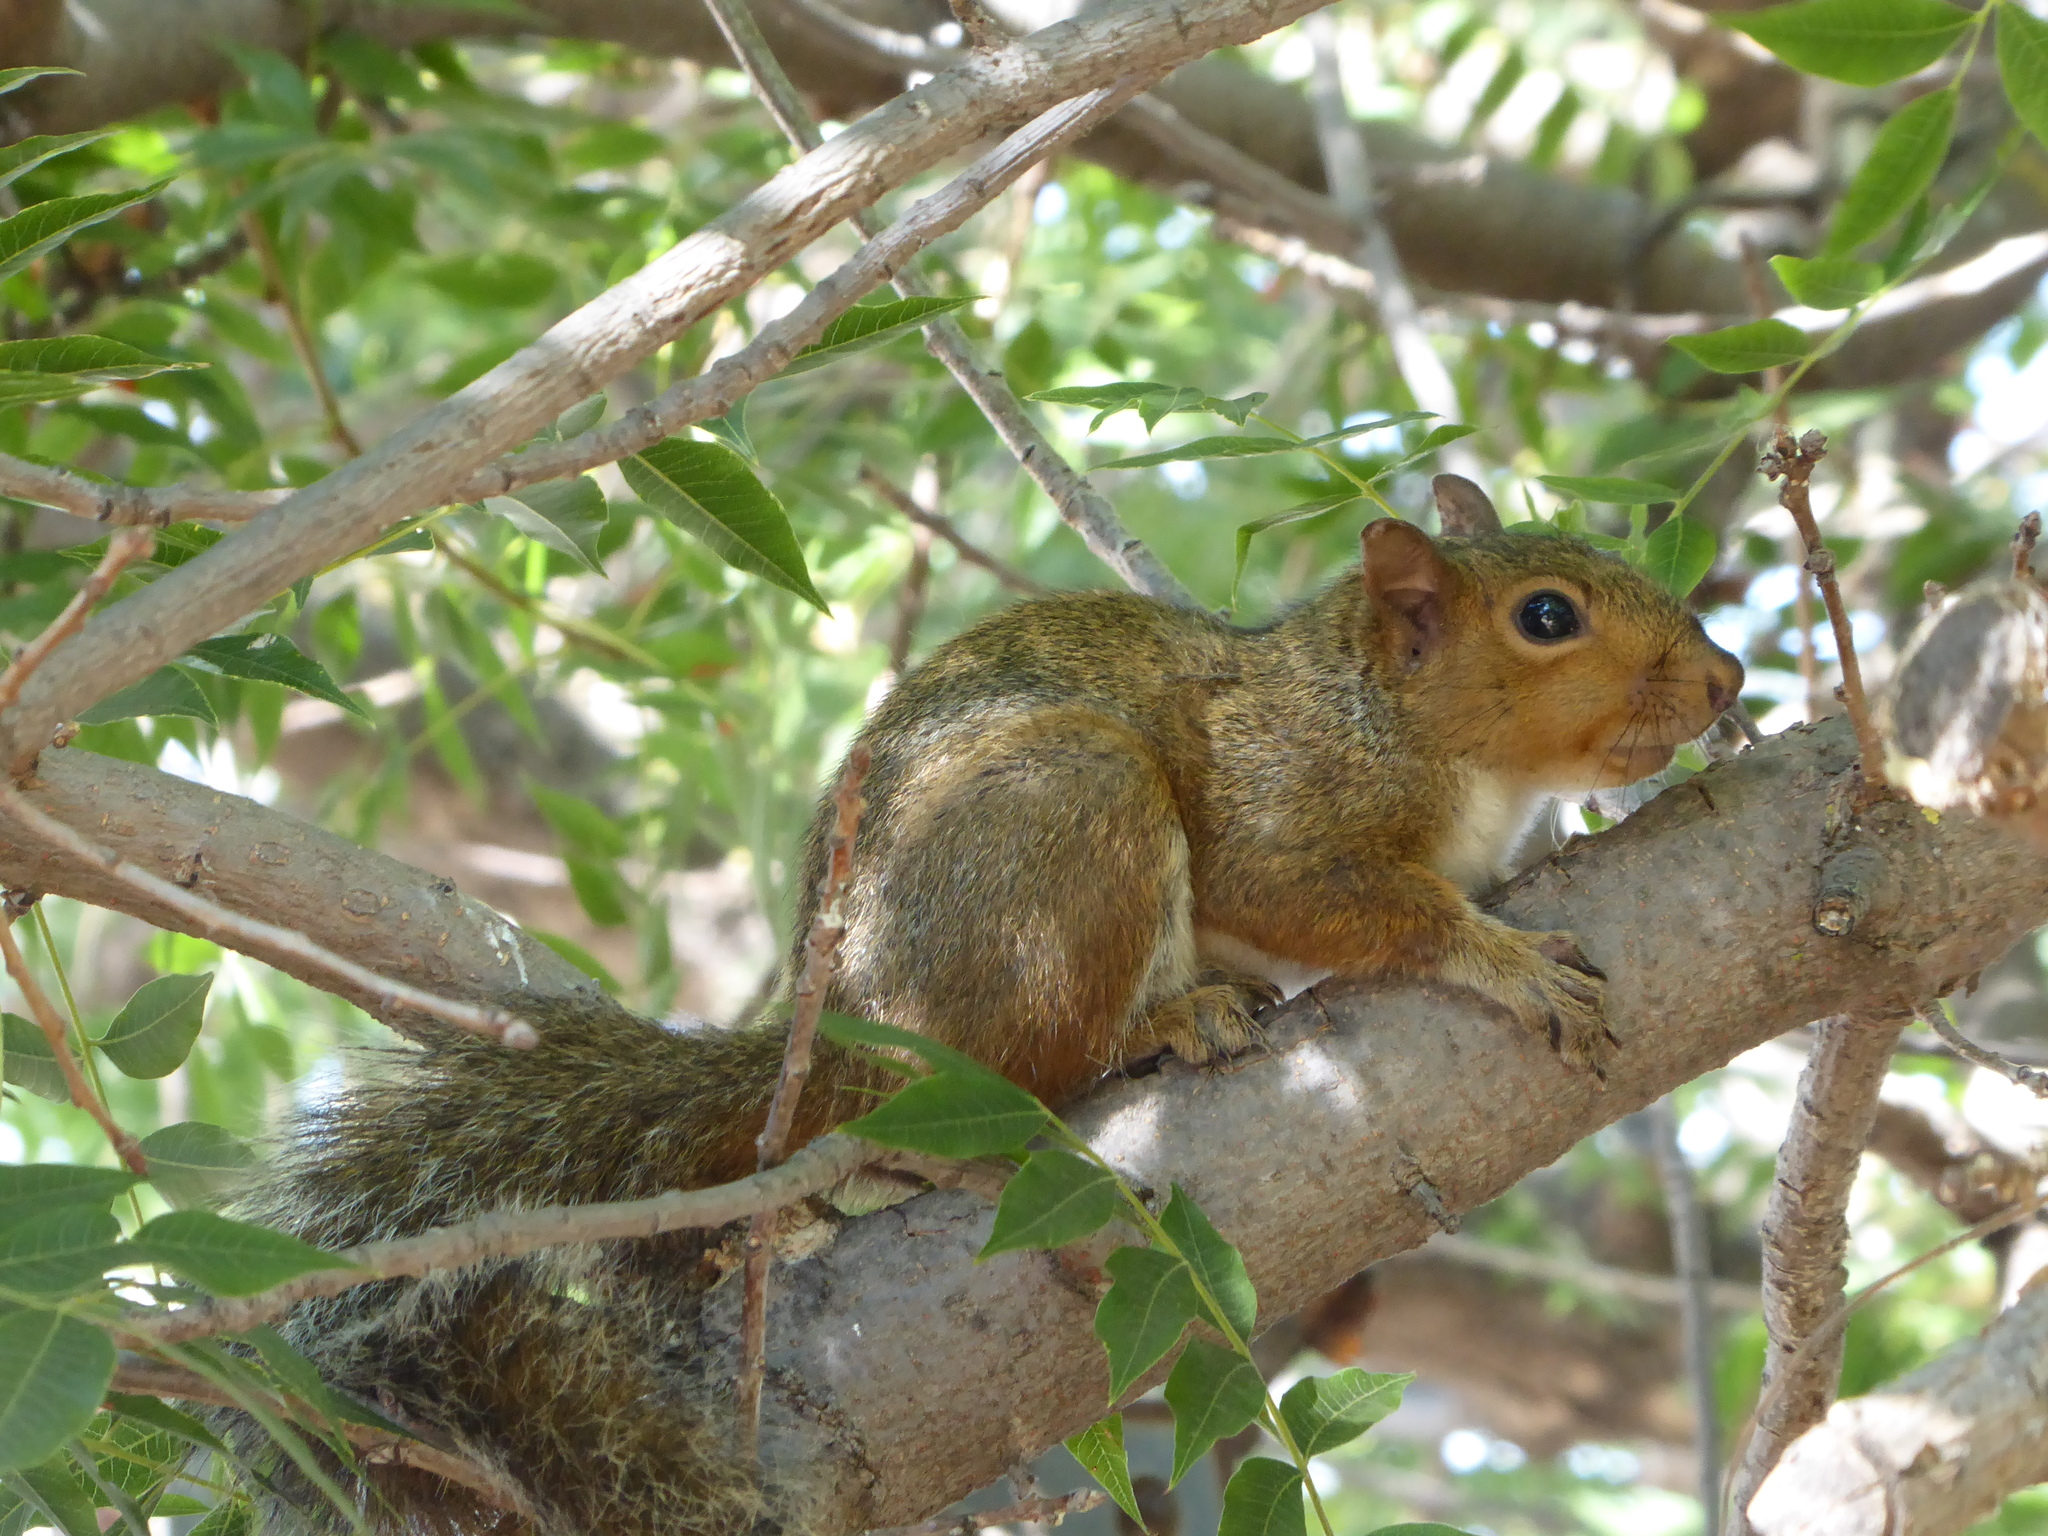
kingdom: Animalia
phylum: Chordata
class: Mammalia
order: Rodentia
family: Sciuridae
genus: Sciurus
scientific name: Sciurus carolinensis
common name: Eastern gray squirrel
